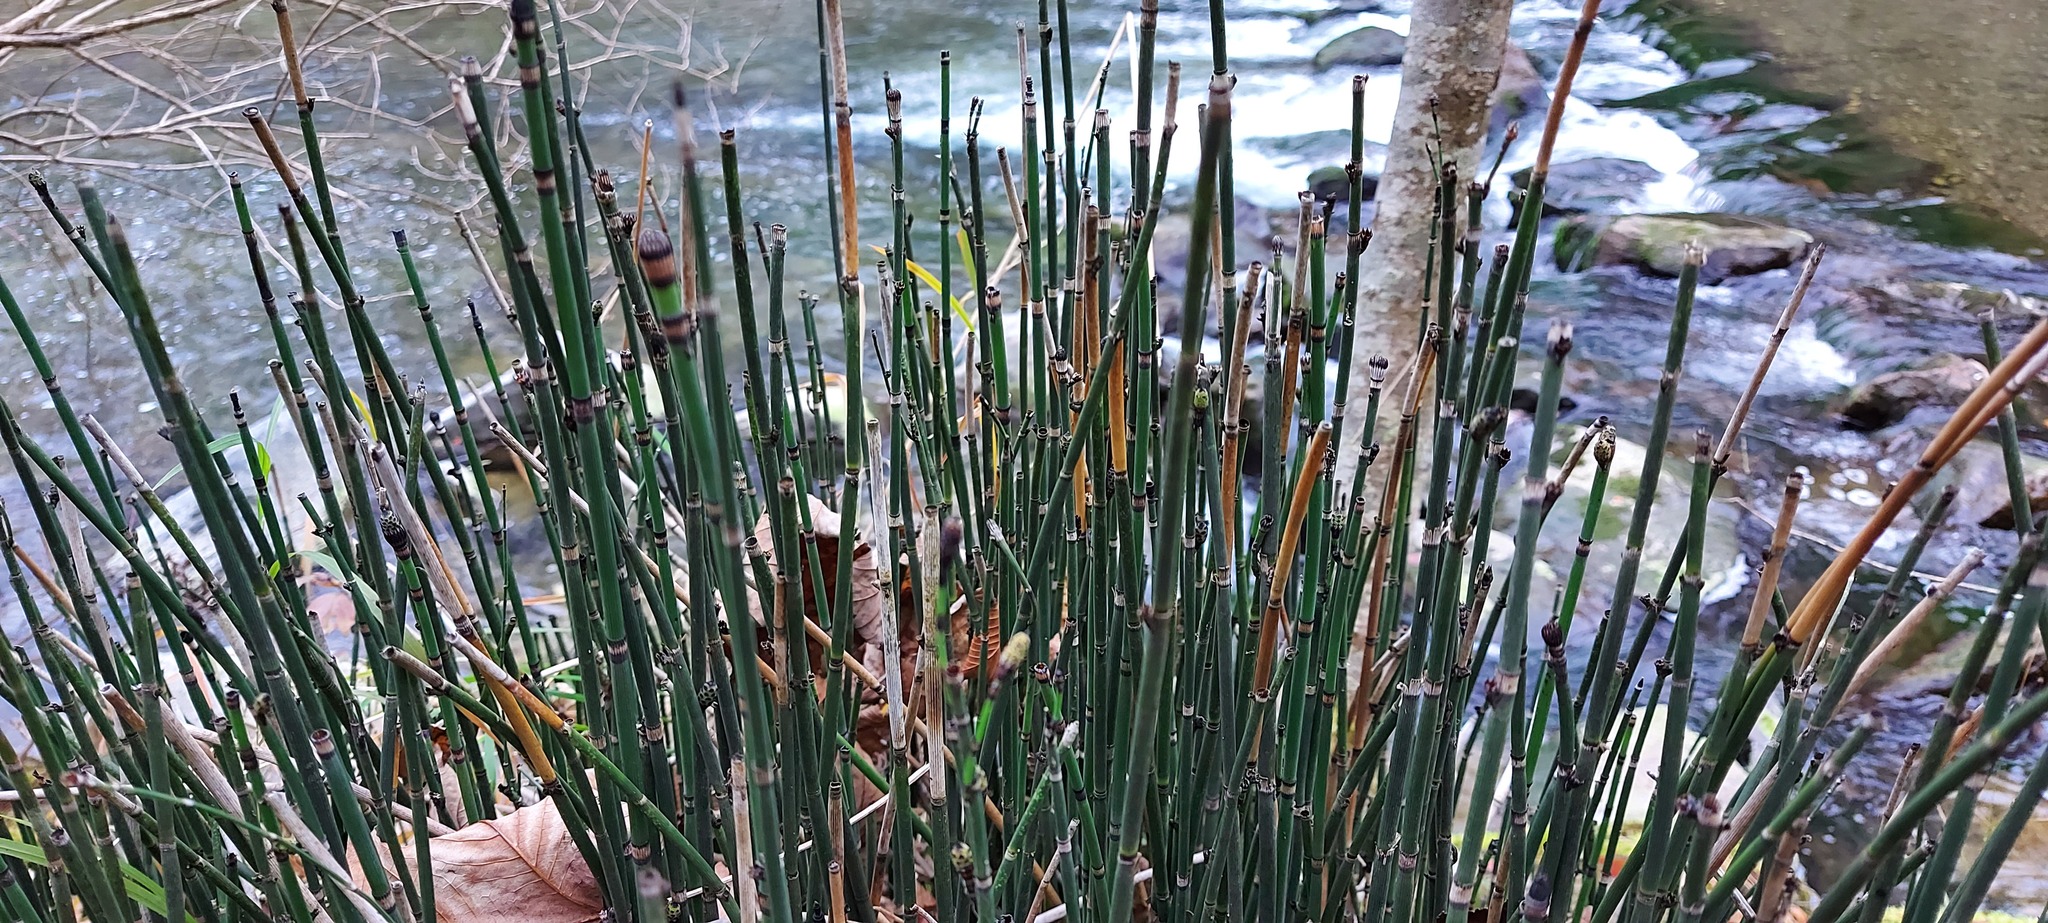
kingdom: Plantae
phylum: Tracheophyta
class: Polypodiopsida
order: Equisetales
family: Equisetaceae
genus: Equisetum
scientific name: Equisetum hyemale
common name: Rough horsetail
